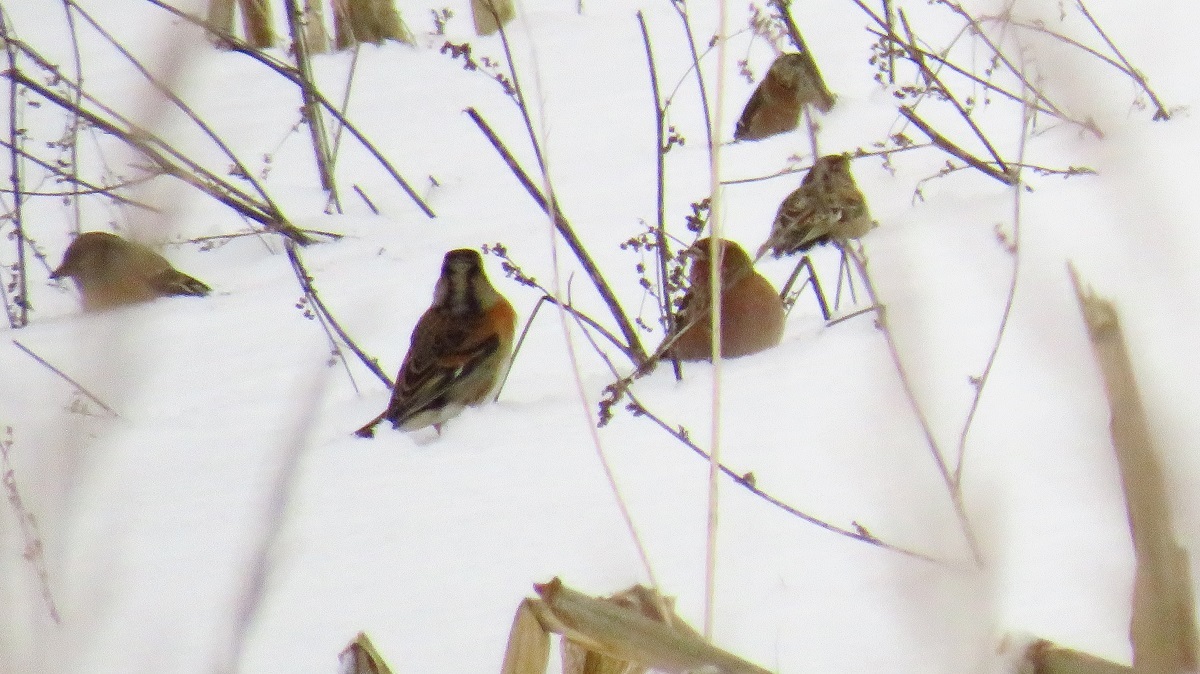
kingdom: Animalia
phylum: Chordata
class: Aves
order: Passeriformes
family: Fringillidae
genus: Fringilla
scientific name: Fringilla montifringilla
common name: Brambling
